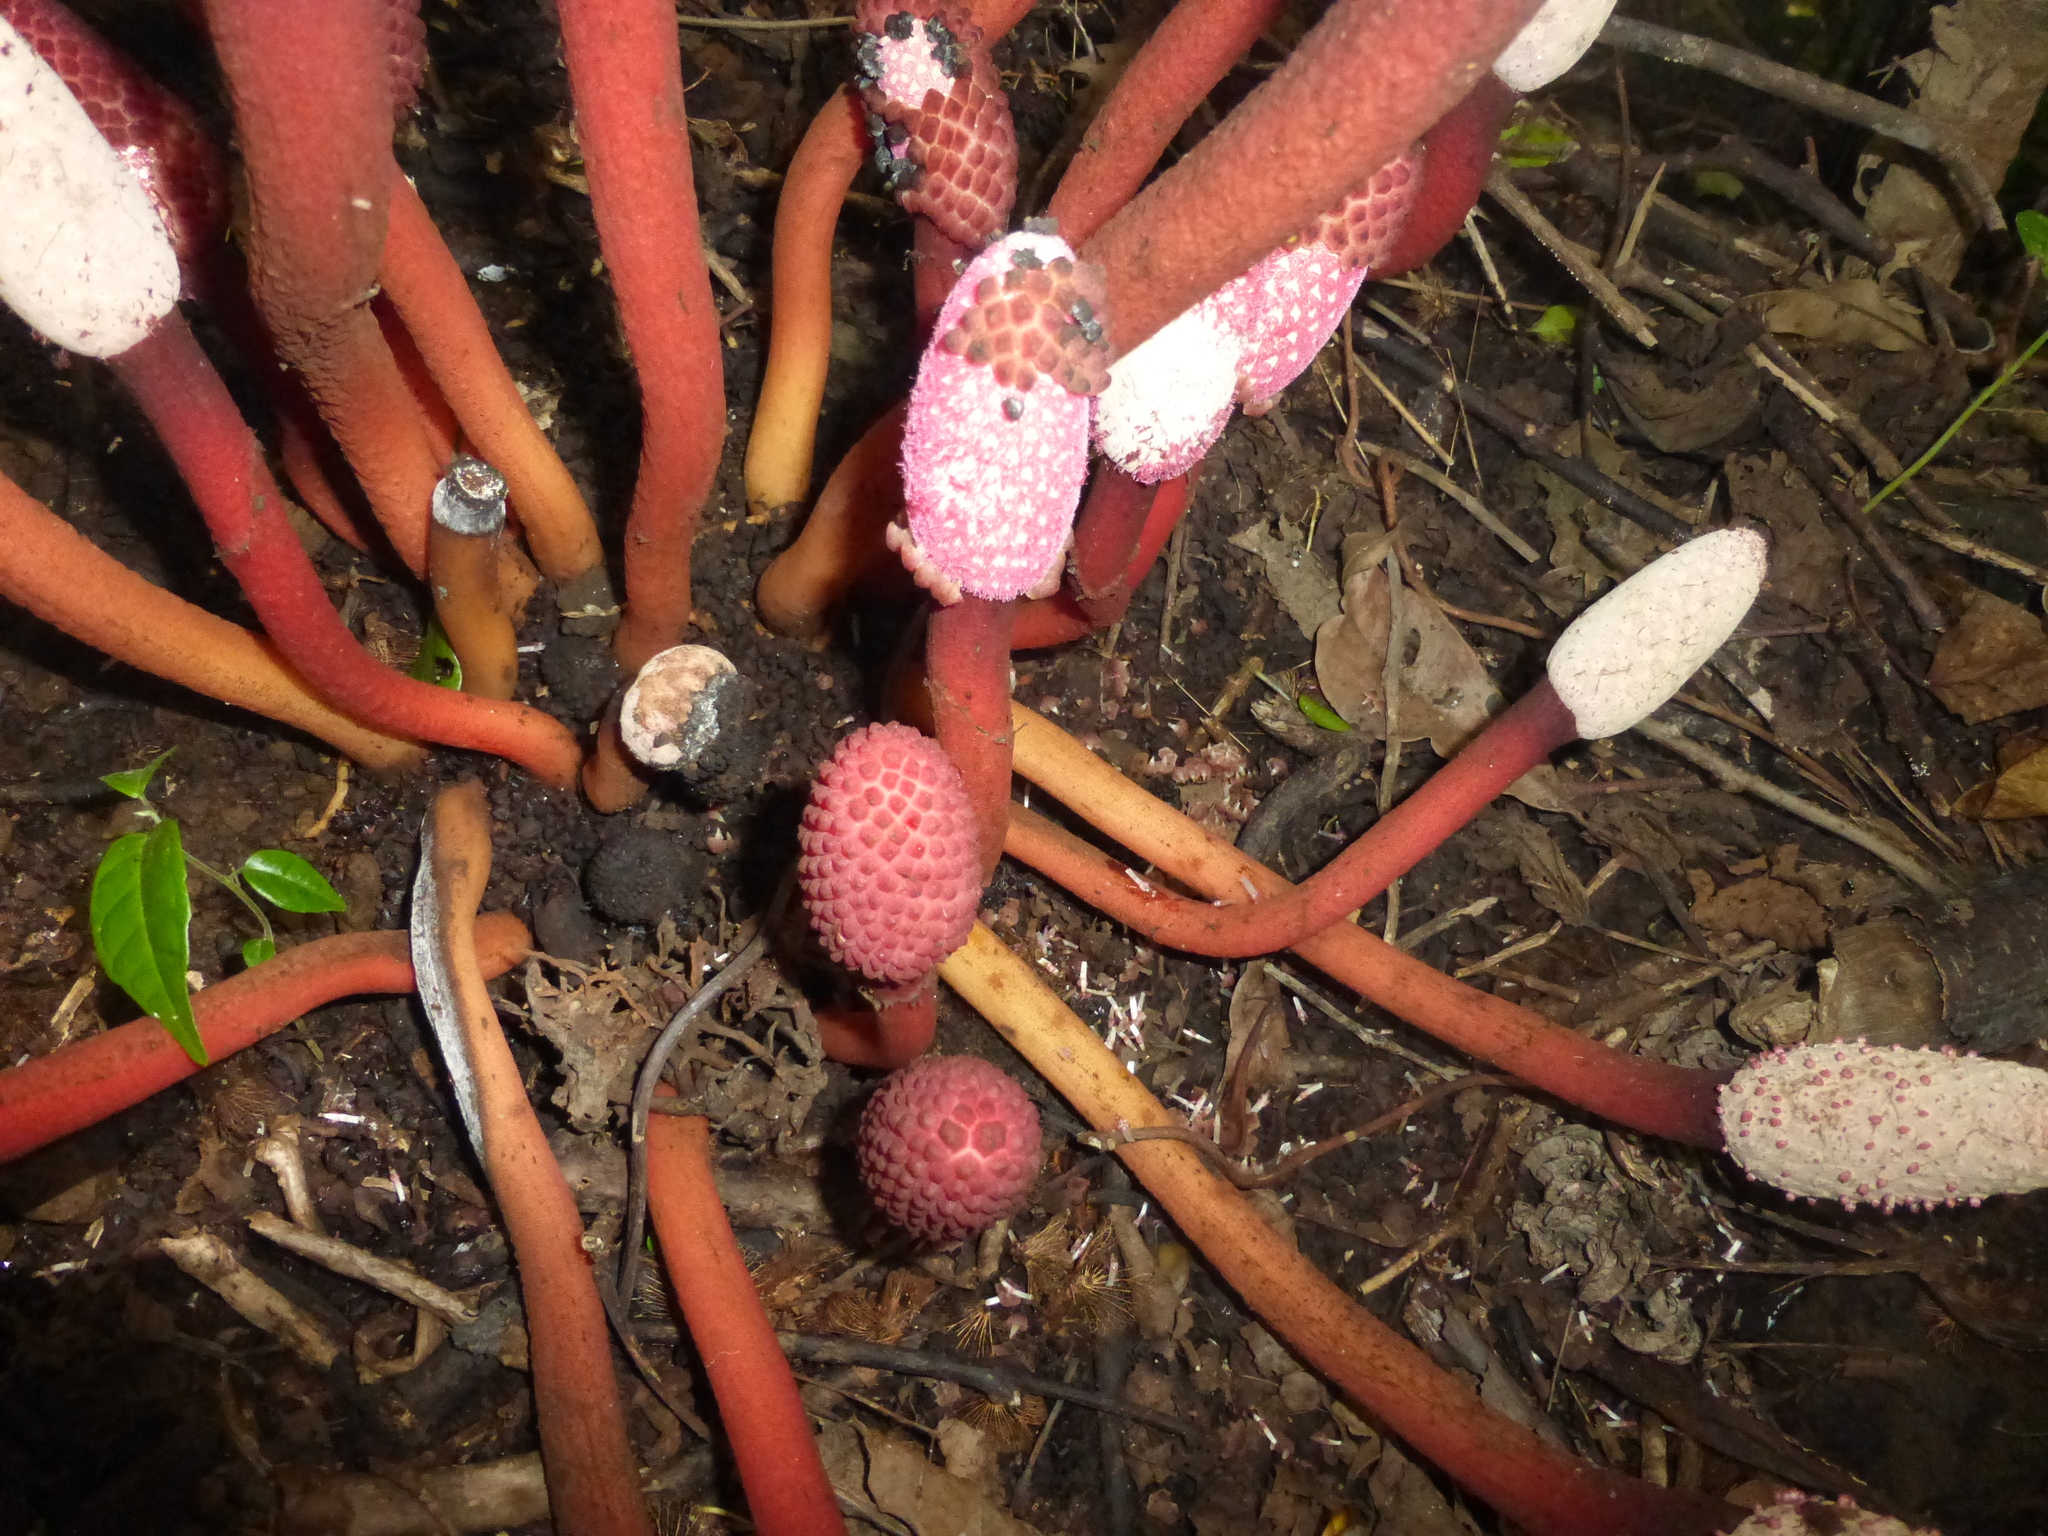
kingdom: Plantae
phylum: Tracheophyta
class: Magnoliopsida
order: Santalales
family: Balanophoraceae
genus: Helosis
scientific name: Helosis cayennensis
